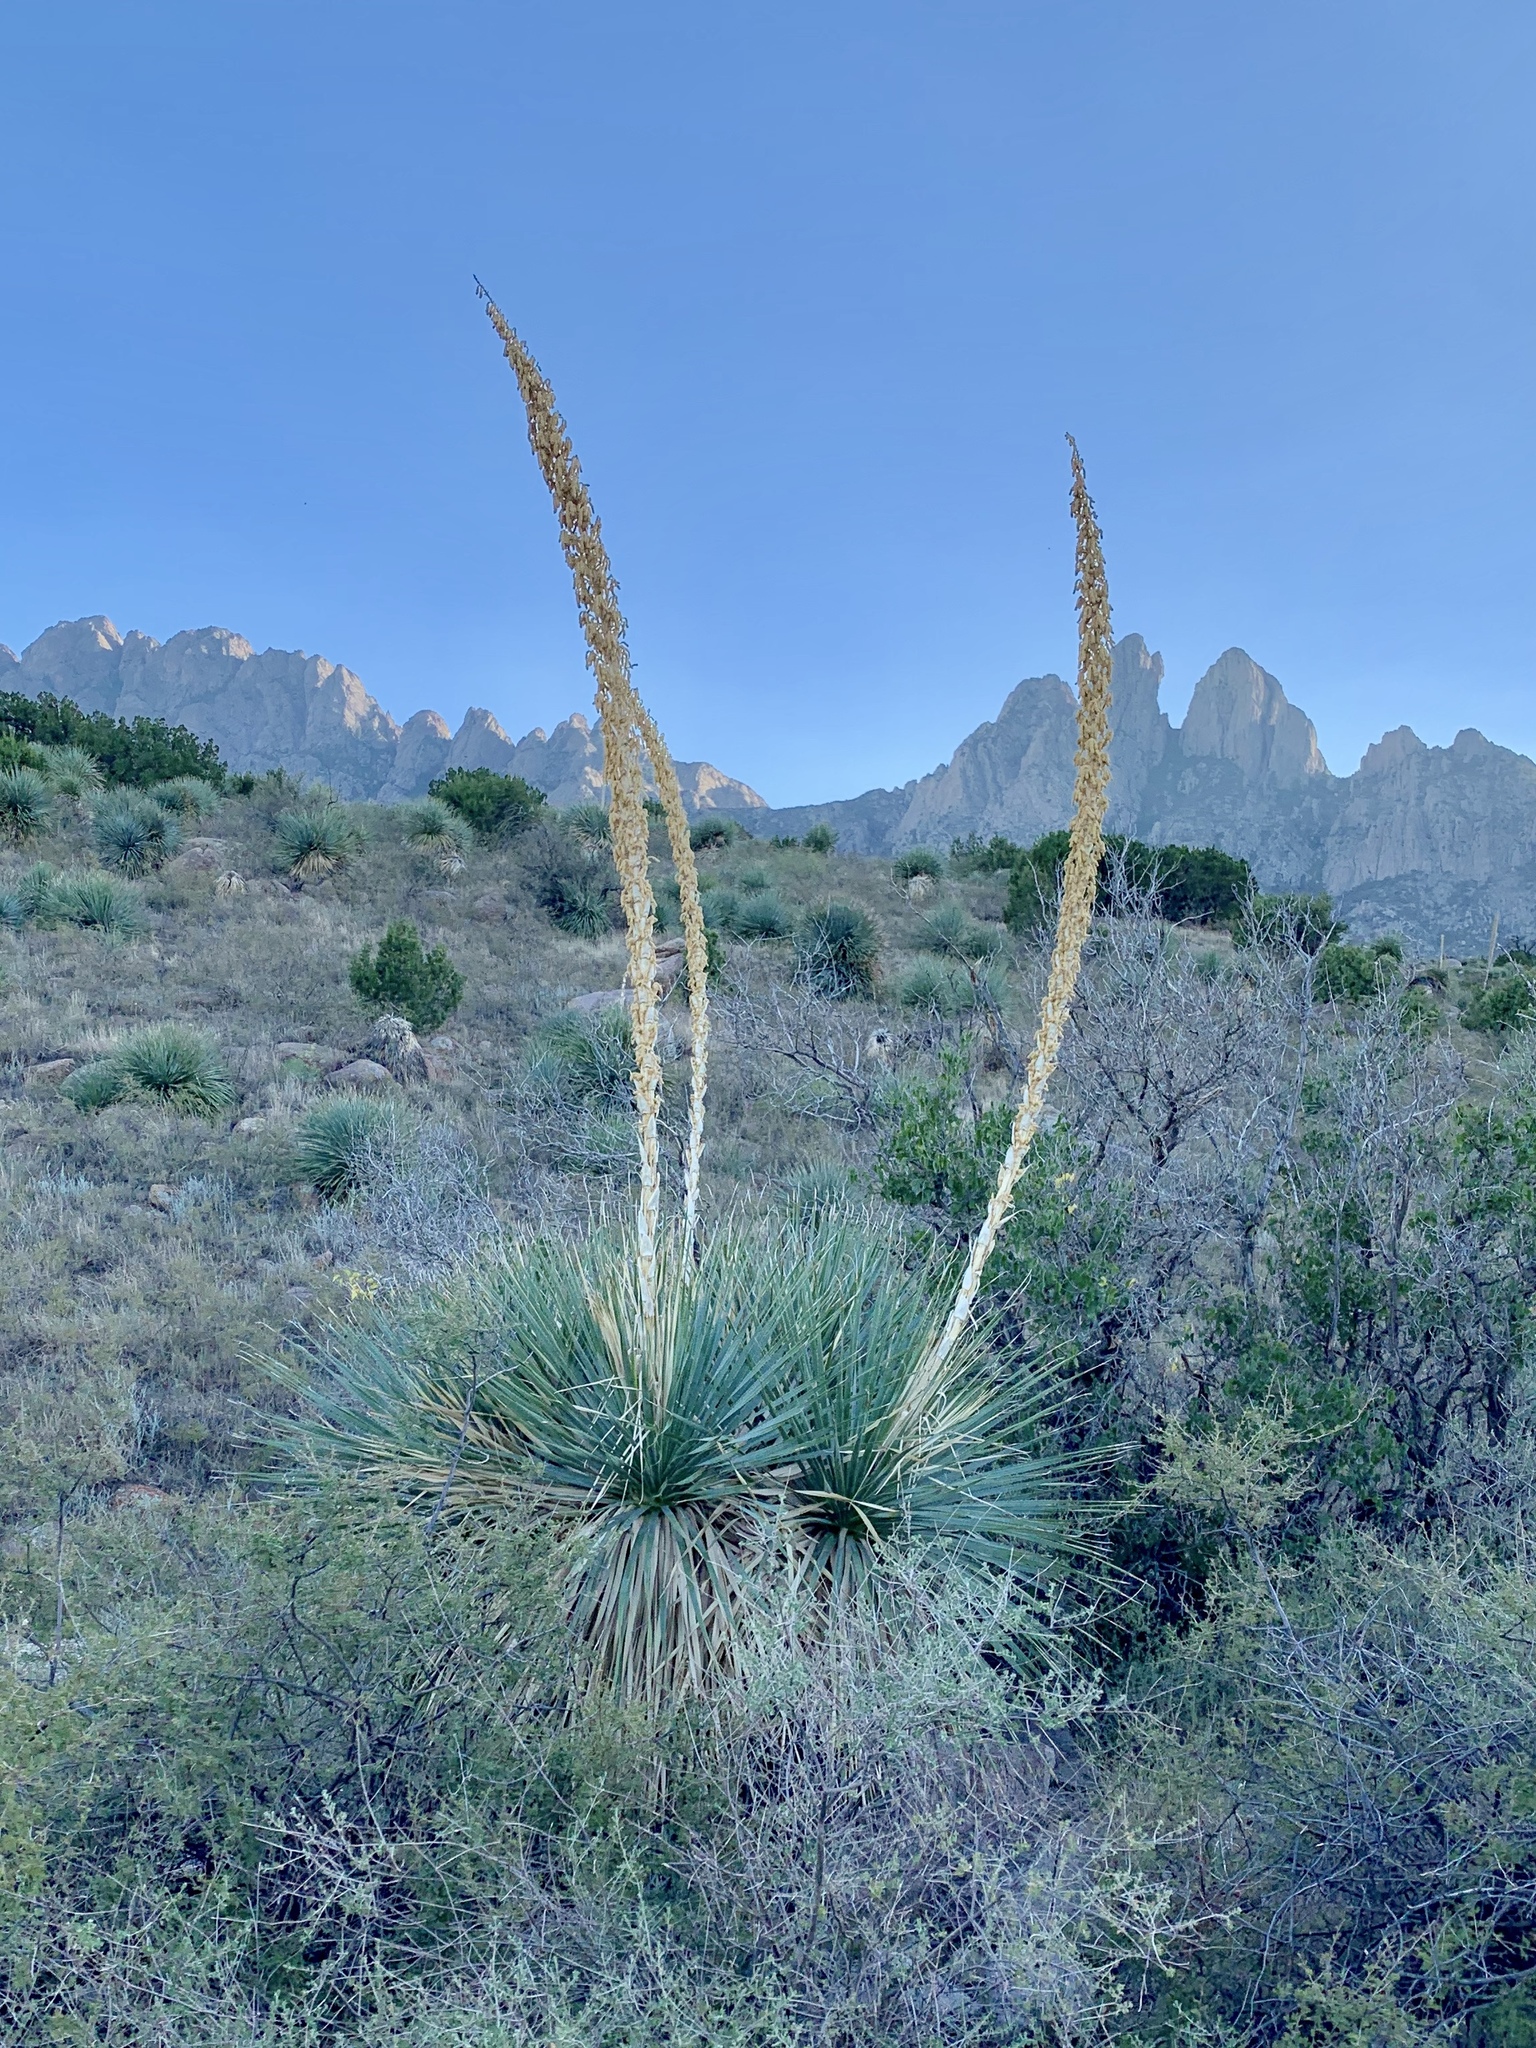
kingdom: Plantae
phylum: Tracheophyta
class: Liliopsida
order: Asparagales
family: Asparagaceae
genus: Dasylirion
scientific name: Dasylirion wheeleri
